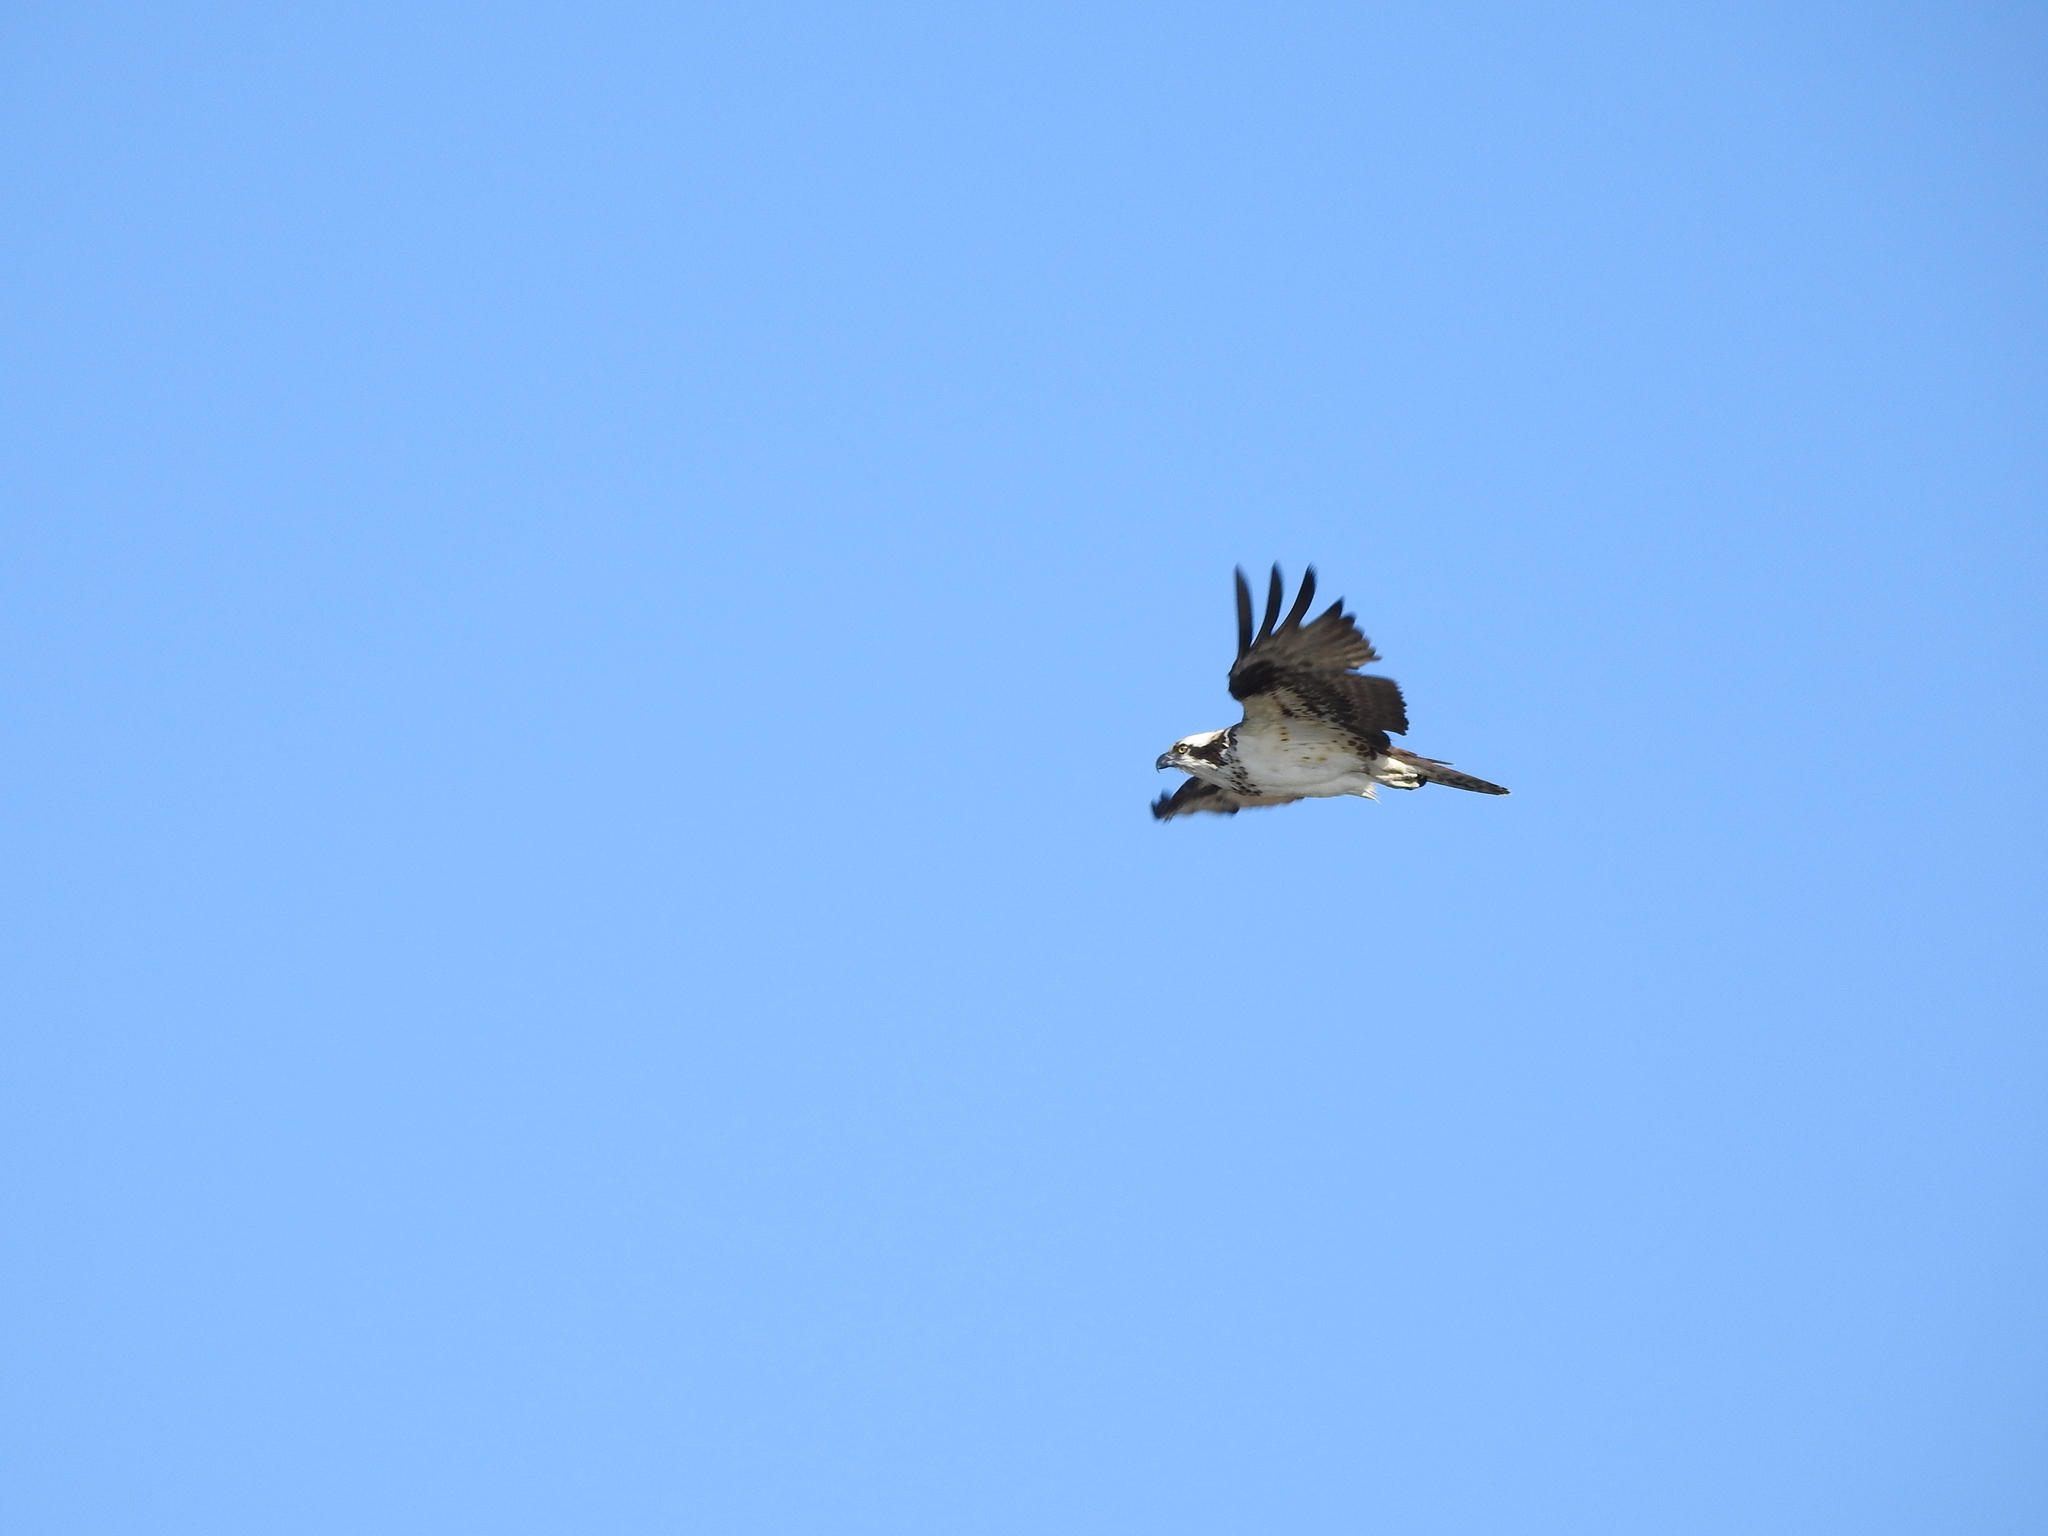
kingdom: Animalia
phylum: Chordata
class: Aves
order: Accipitriformes
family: Pandionidae
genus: Pandion
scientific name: Pandion haliaetus
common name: Osprey
